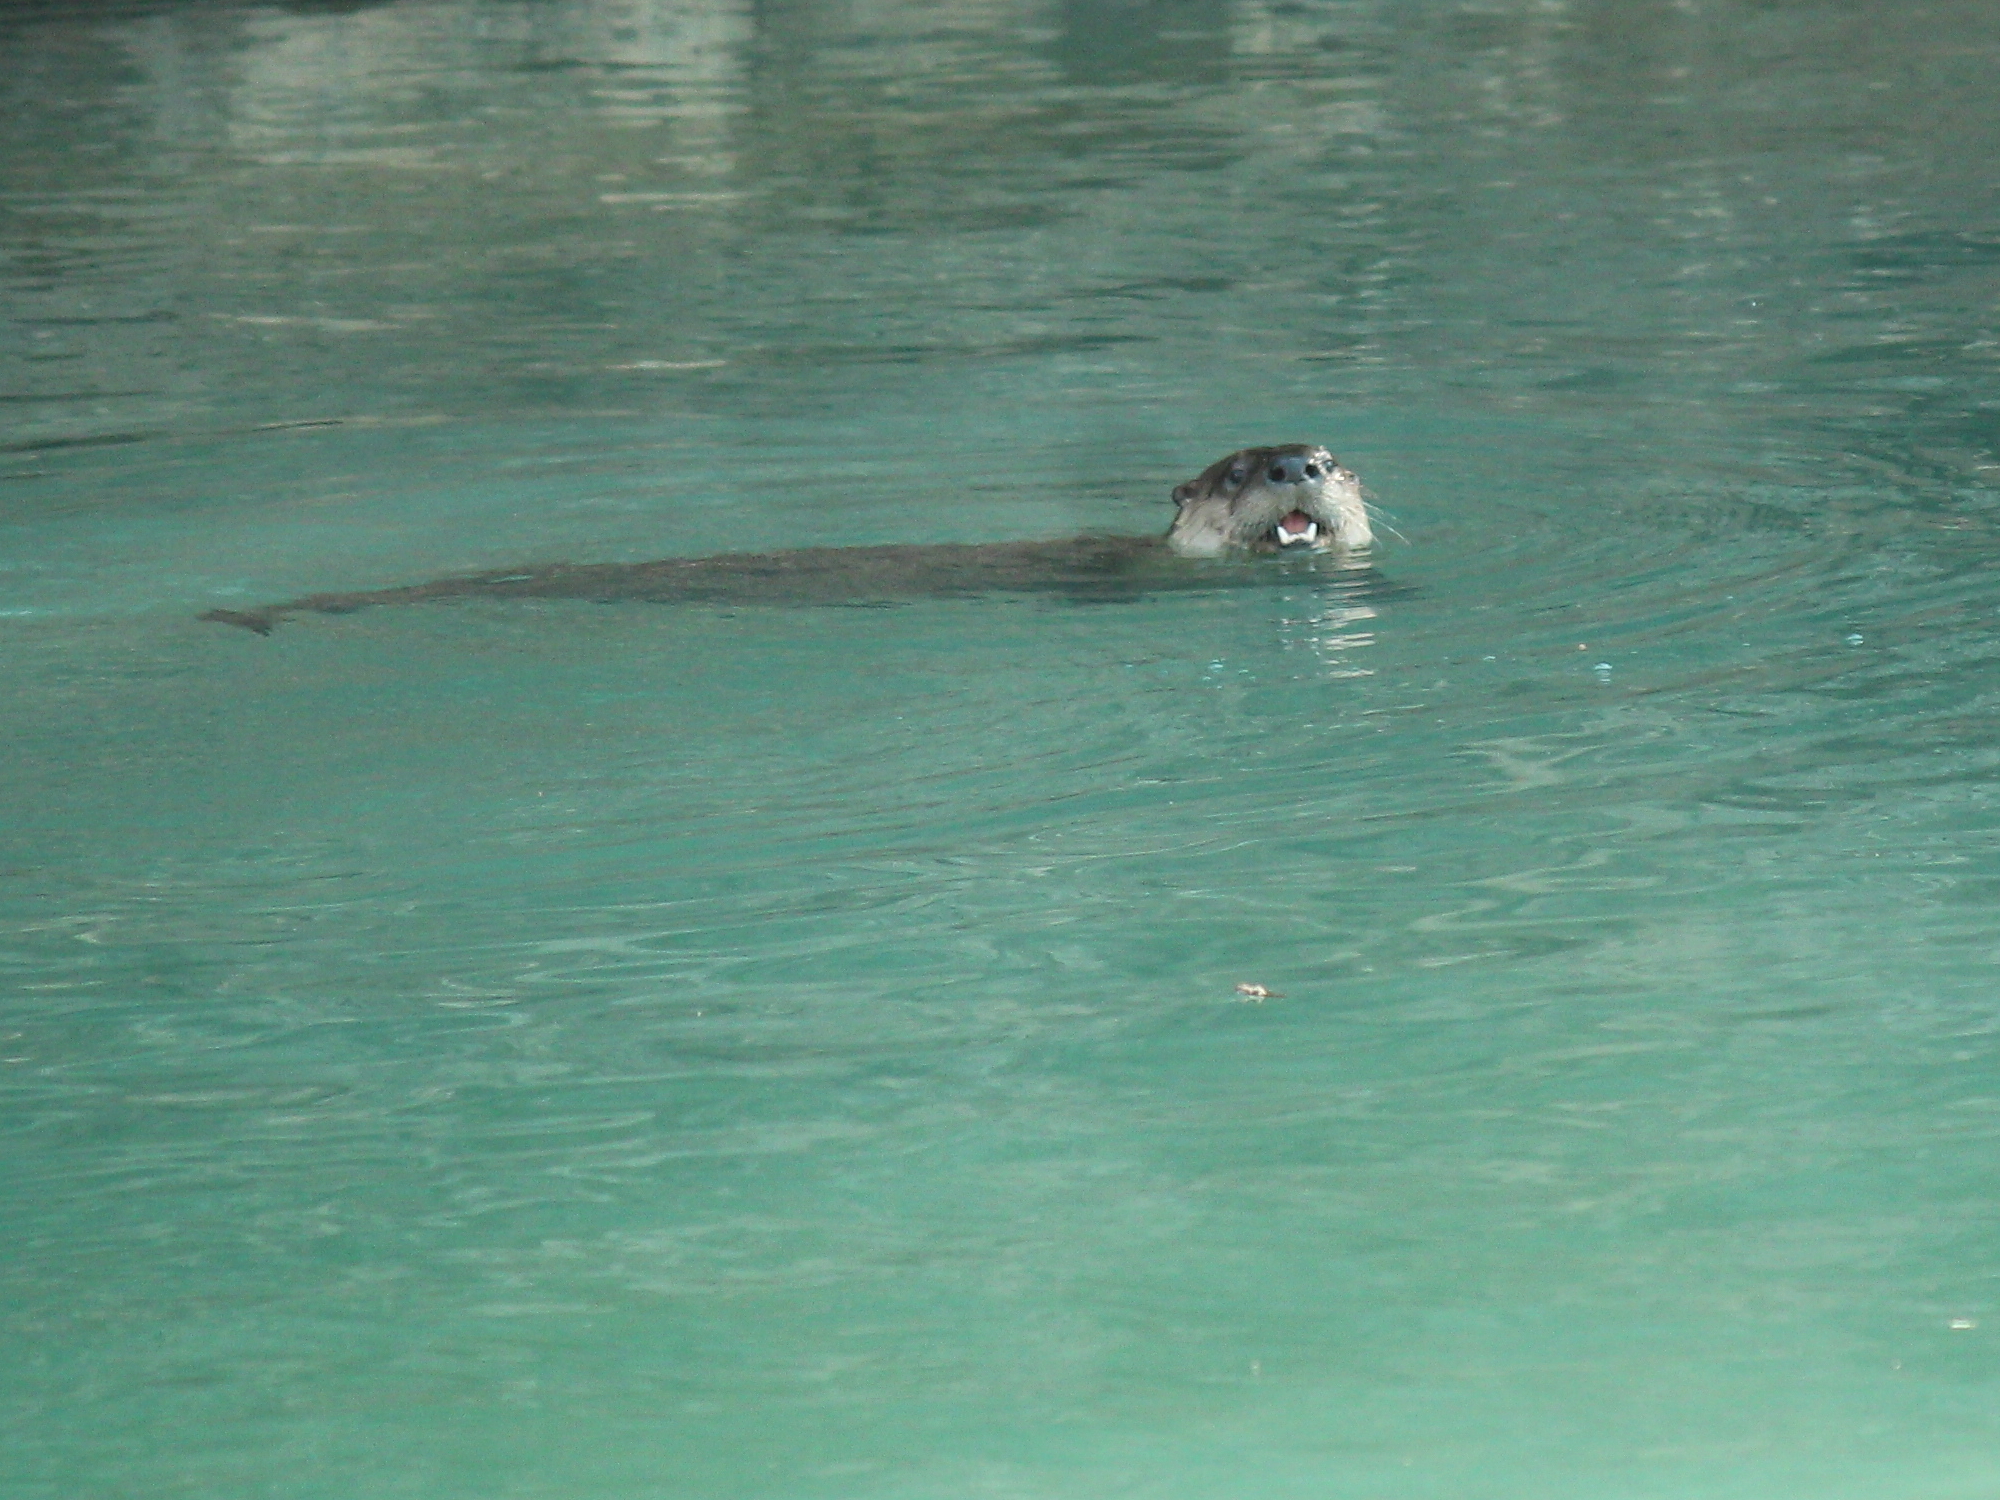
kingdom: Animalia
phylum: Chordata
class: Mammalia
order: Carnivora
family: Mustelidae
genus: Lontra
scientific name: Lontra canadensis
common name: North american river otter
